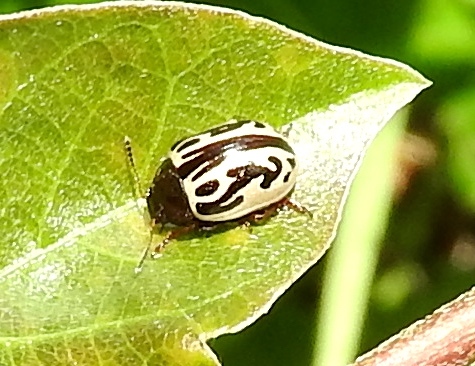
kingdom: Animalia
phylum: Arthropoda
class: Insecta
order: Coleoptera
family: Chrysomelidae
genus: Calligrapha
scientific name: Calligrapha
